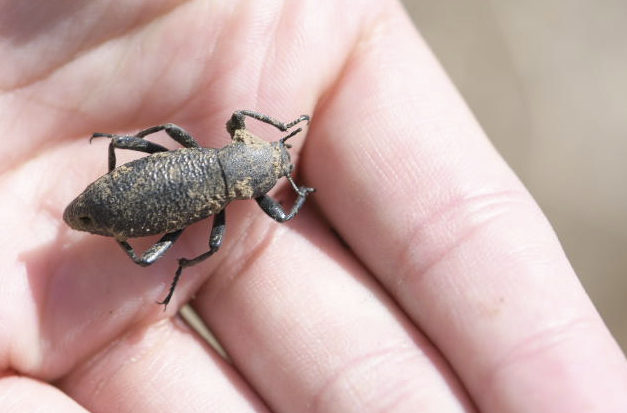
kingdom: Animalia
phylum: Arthropoda
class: Insecta
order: Coleoptera
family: Tenebrionidae
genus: Eleodes
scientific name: Eleodes ruida
